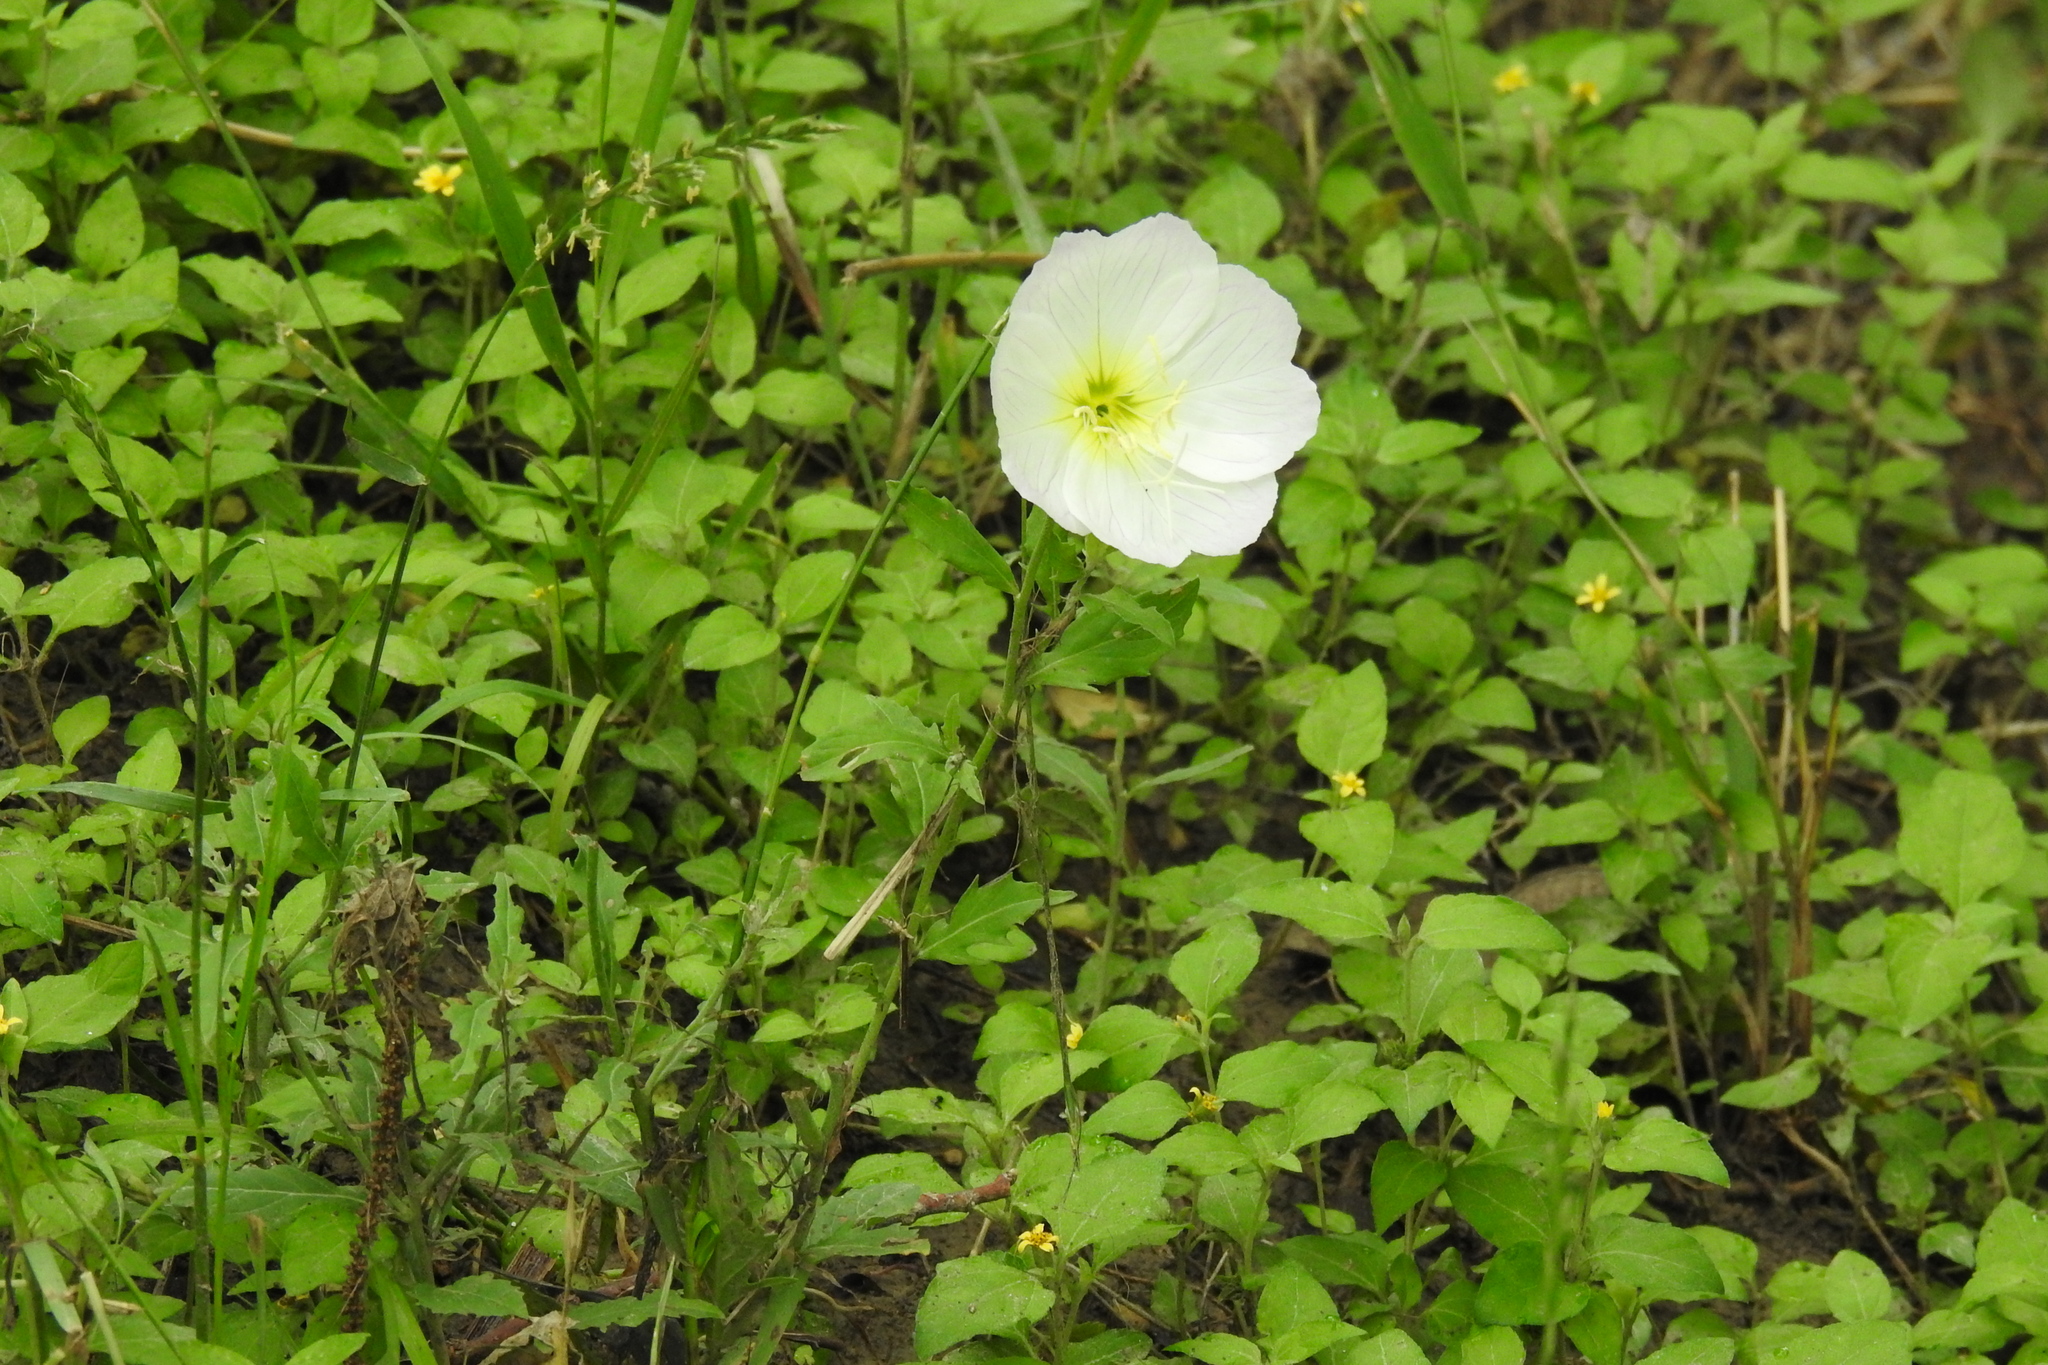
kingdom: Plantae
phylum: Tracheophyta
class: Magnoliopsida
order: Myrtales
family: Onagraceae
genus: Oenothera
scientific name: Oenothera speciosa
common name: White evening-primrose
